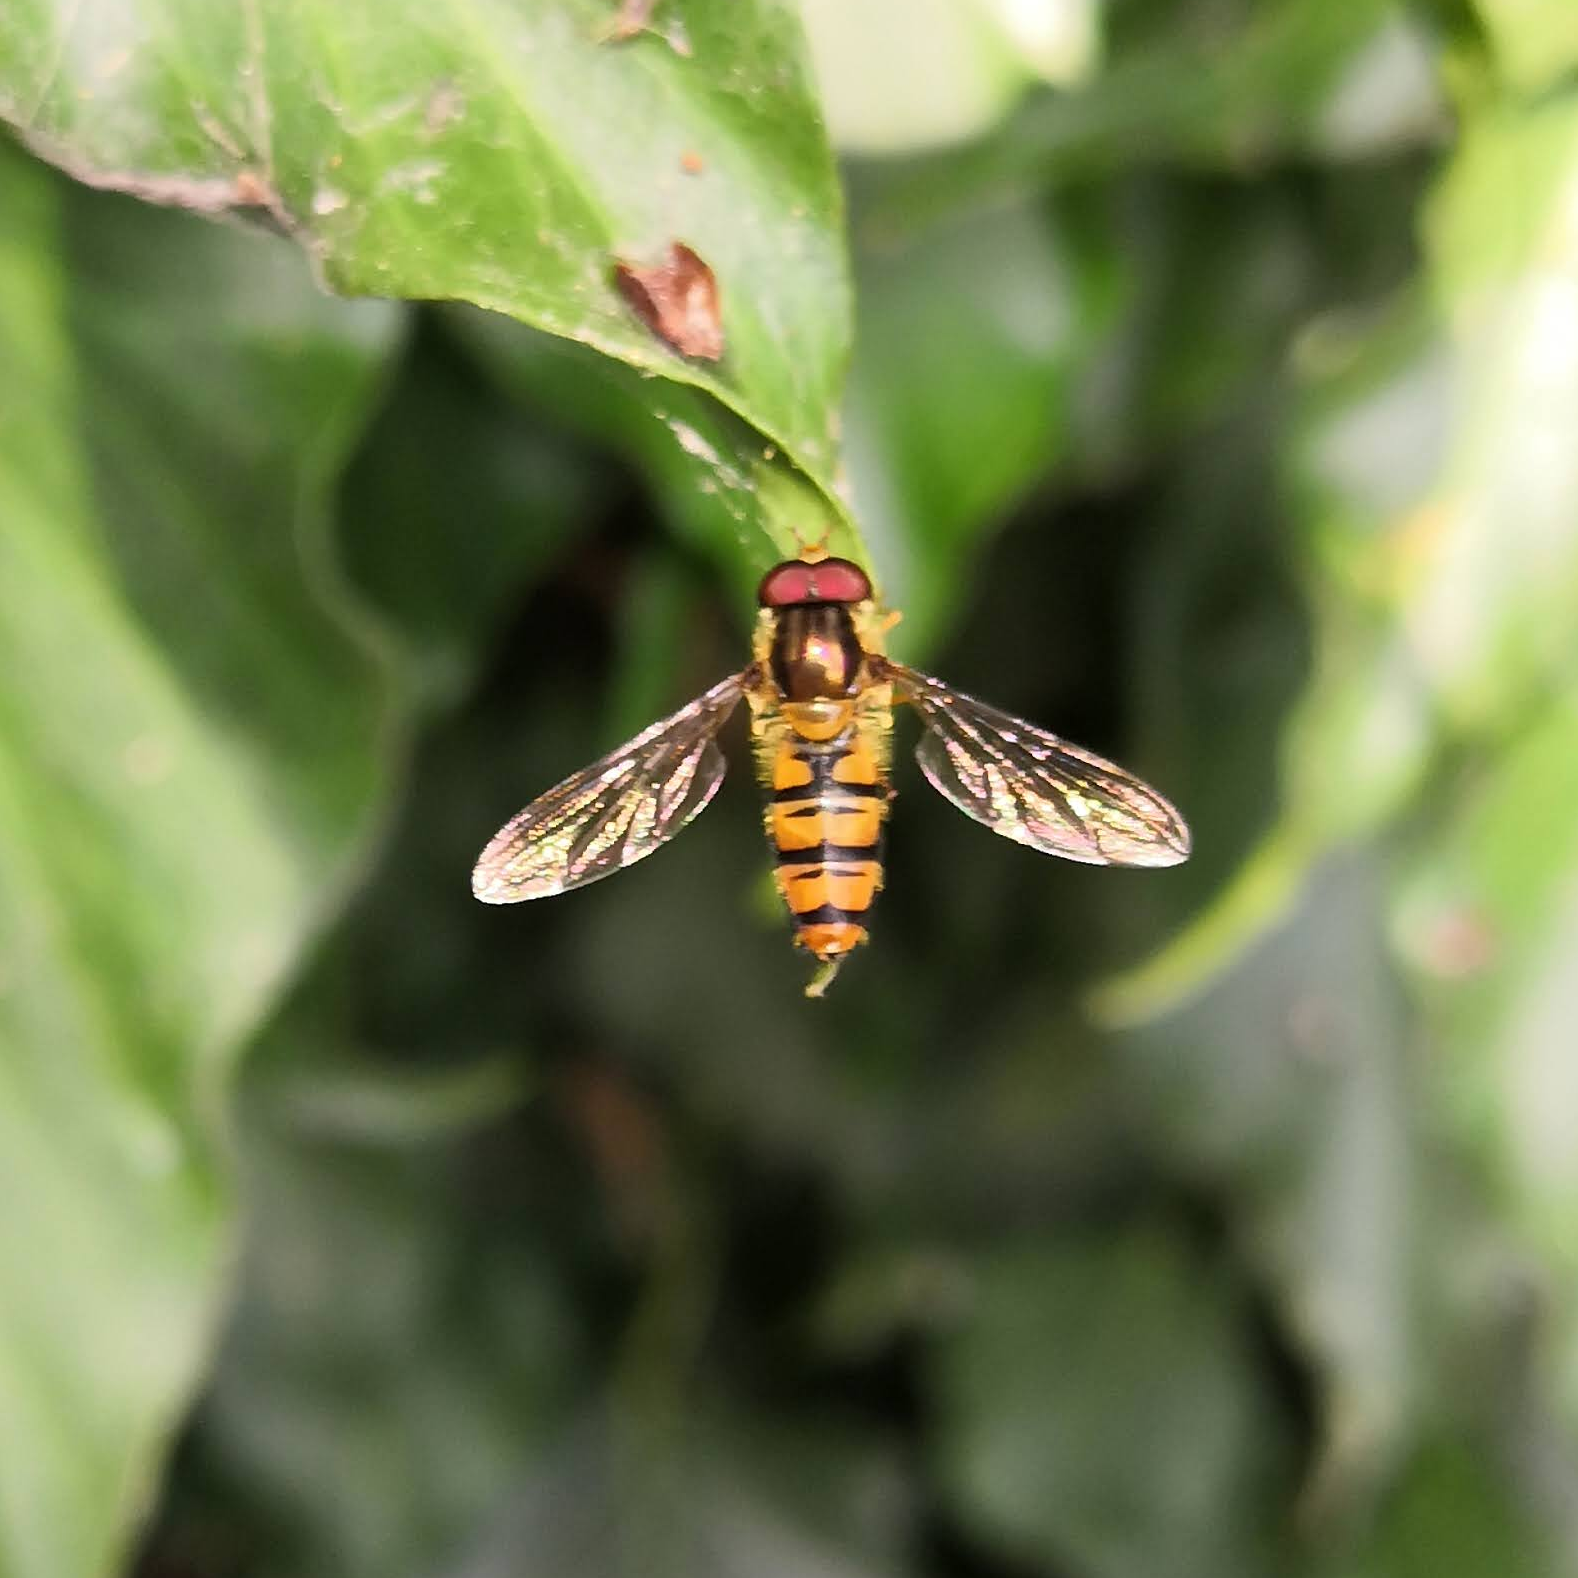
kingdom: Animalia
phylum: Arthropoda
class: Insecta
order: Diptera
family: Syrphidae
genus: Episyrphus
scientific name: Episyrphus balteatus
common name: Marmalade hoverfly
